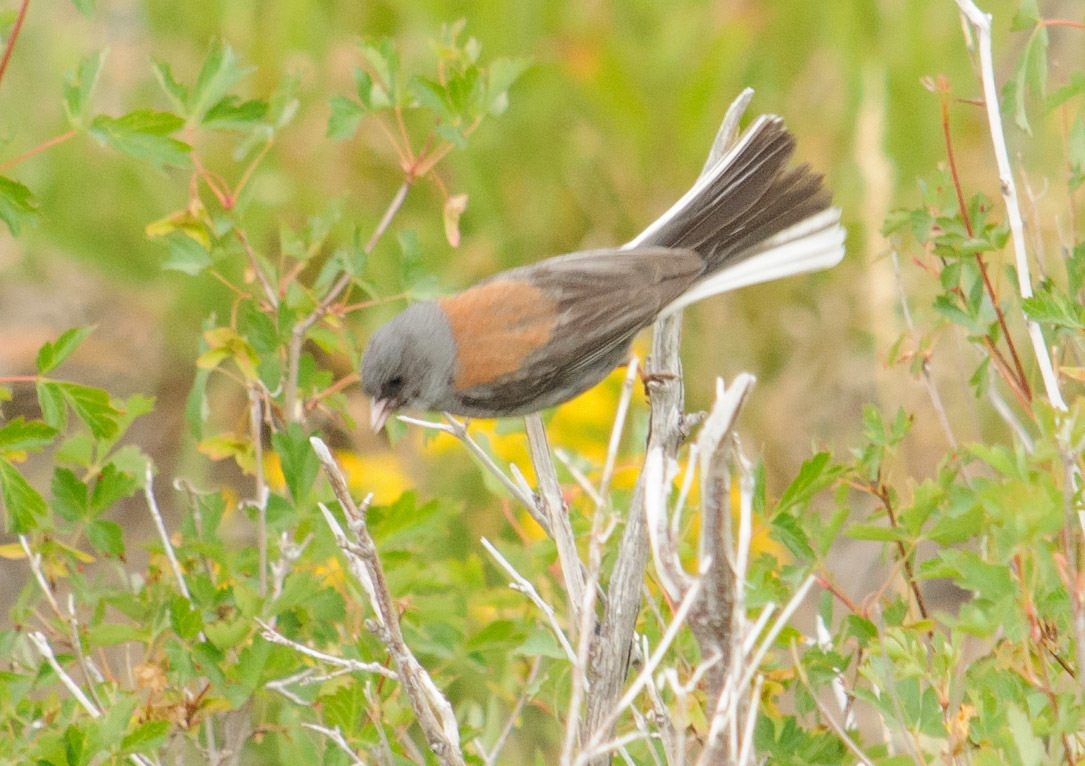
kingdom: Animalia
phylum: Chordata
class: Aves
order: Passeriformes
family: Passerellidae
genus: Junco
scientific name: Junco hyemalis
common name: Dark-eyed junco
